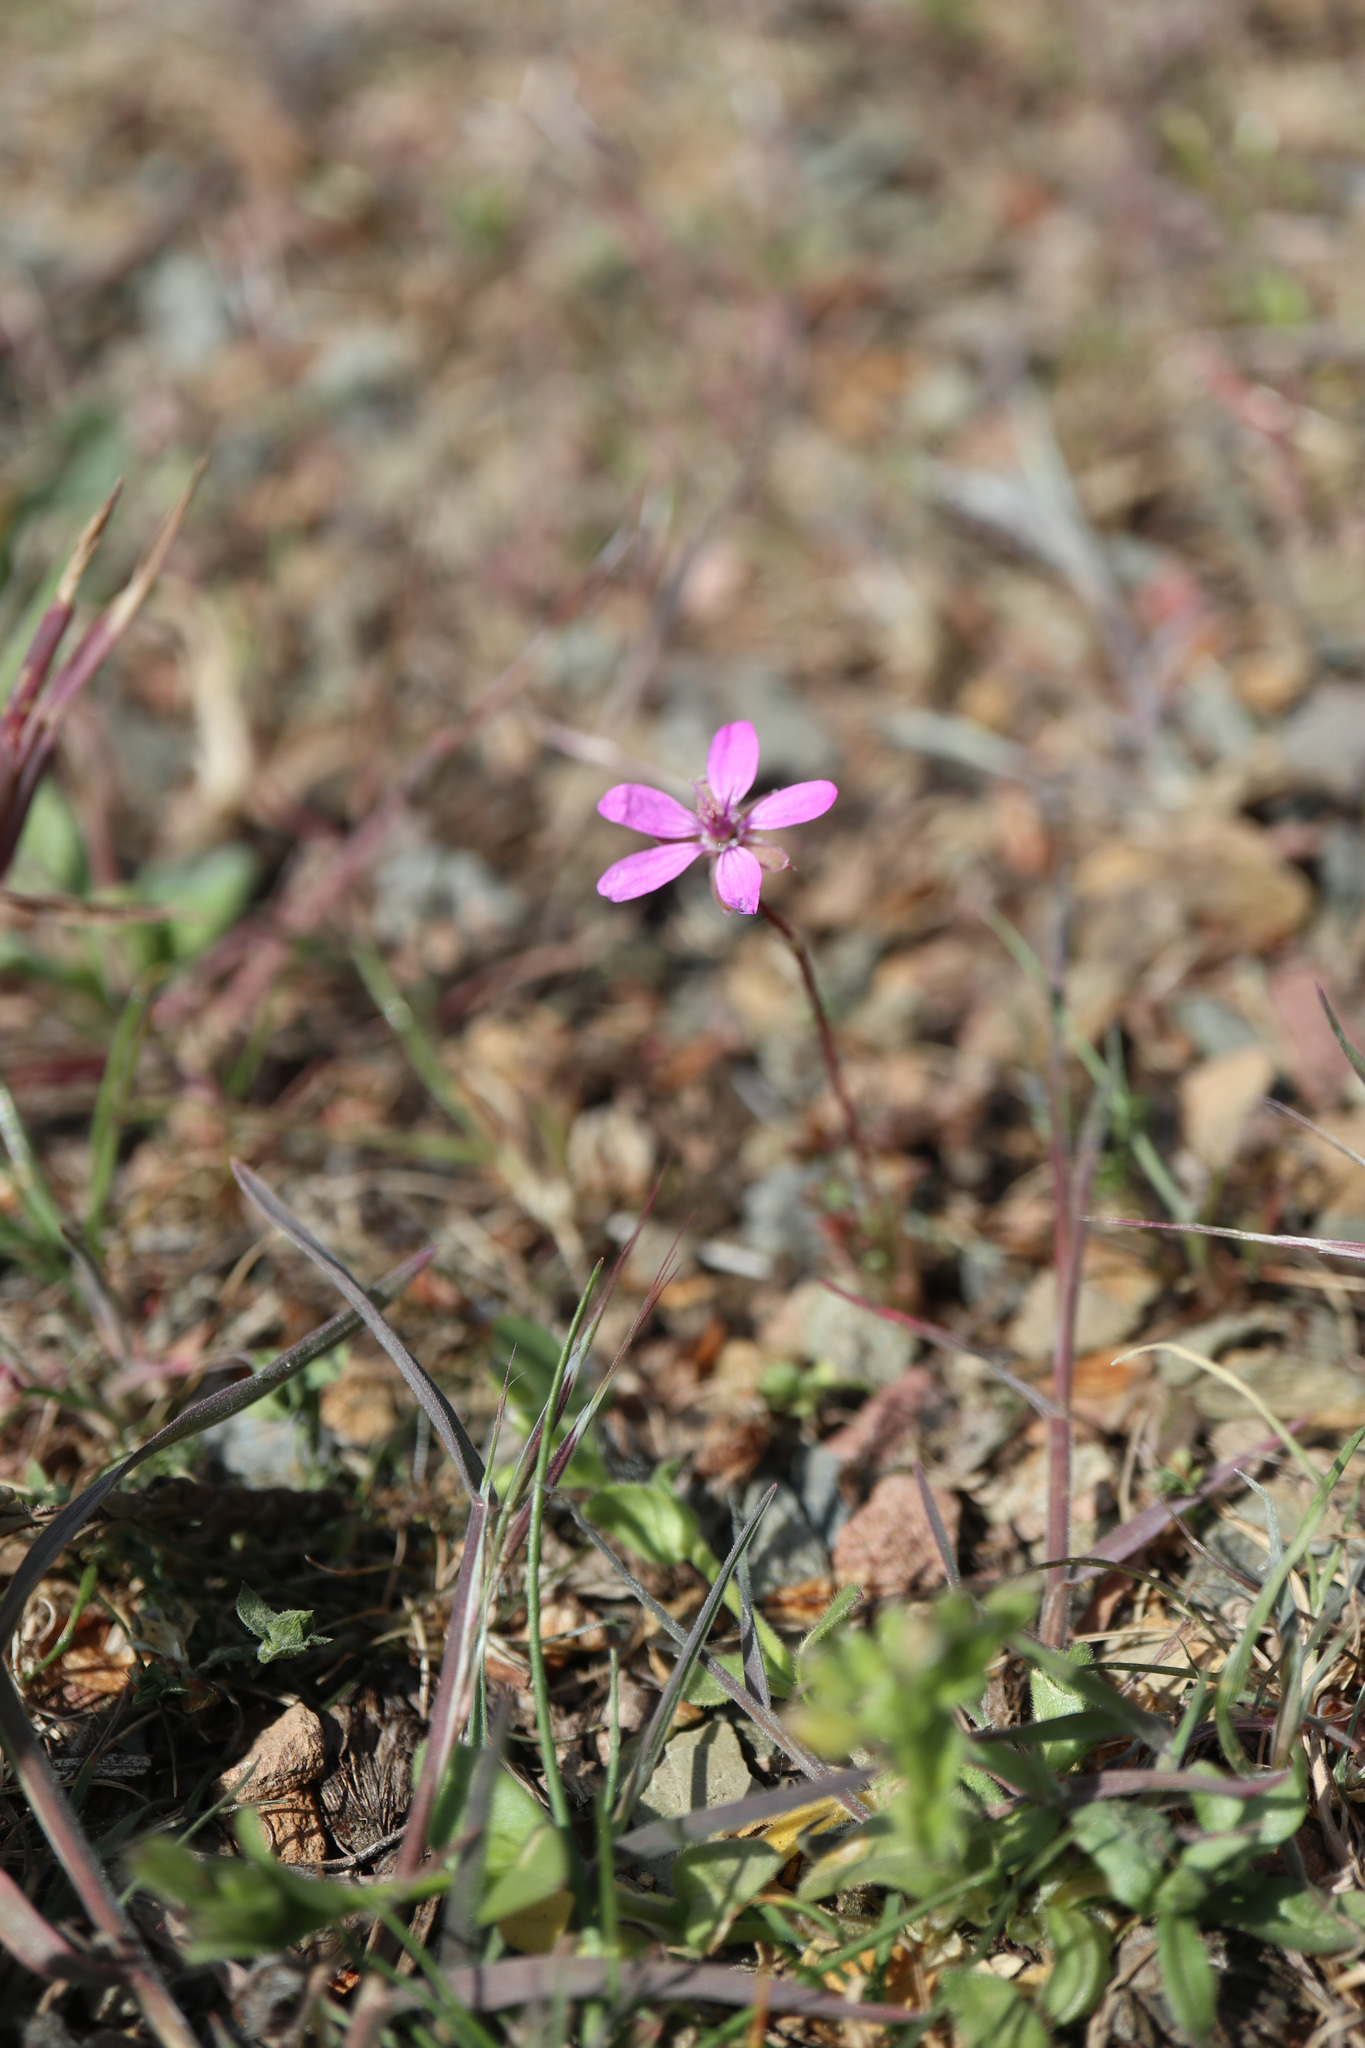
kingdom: Plantae
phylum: Tracheophyta
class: Magnoliopsida
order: Geraniales
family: Geraniaceae
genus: Erodium
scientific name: Erodium cicutarium
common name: Common stork's-bill
